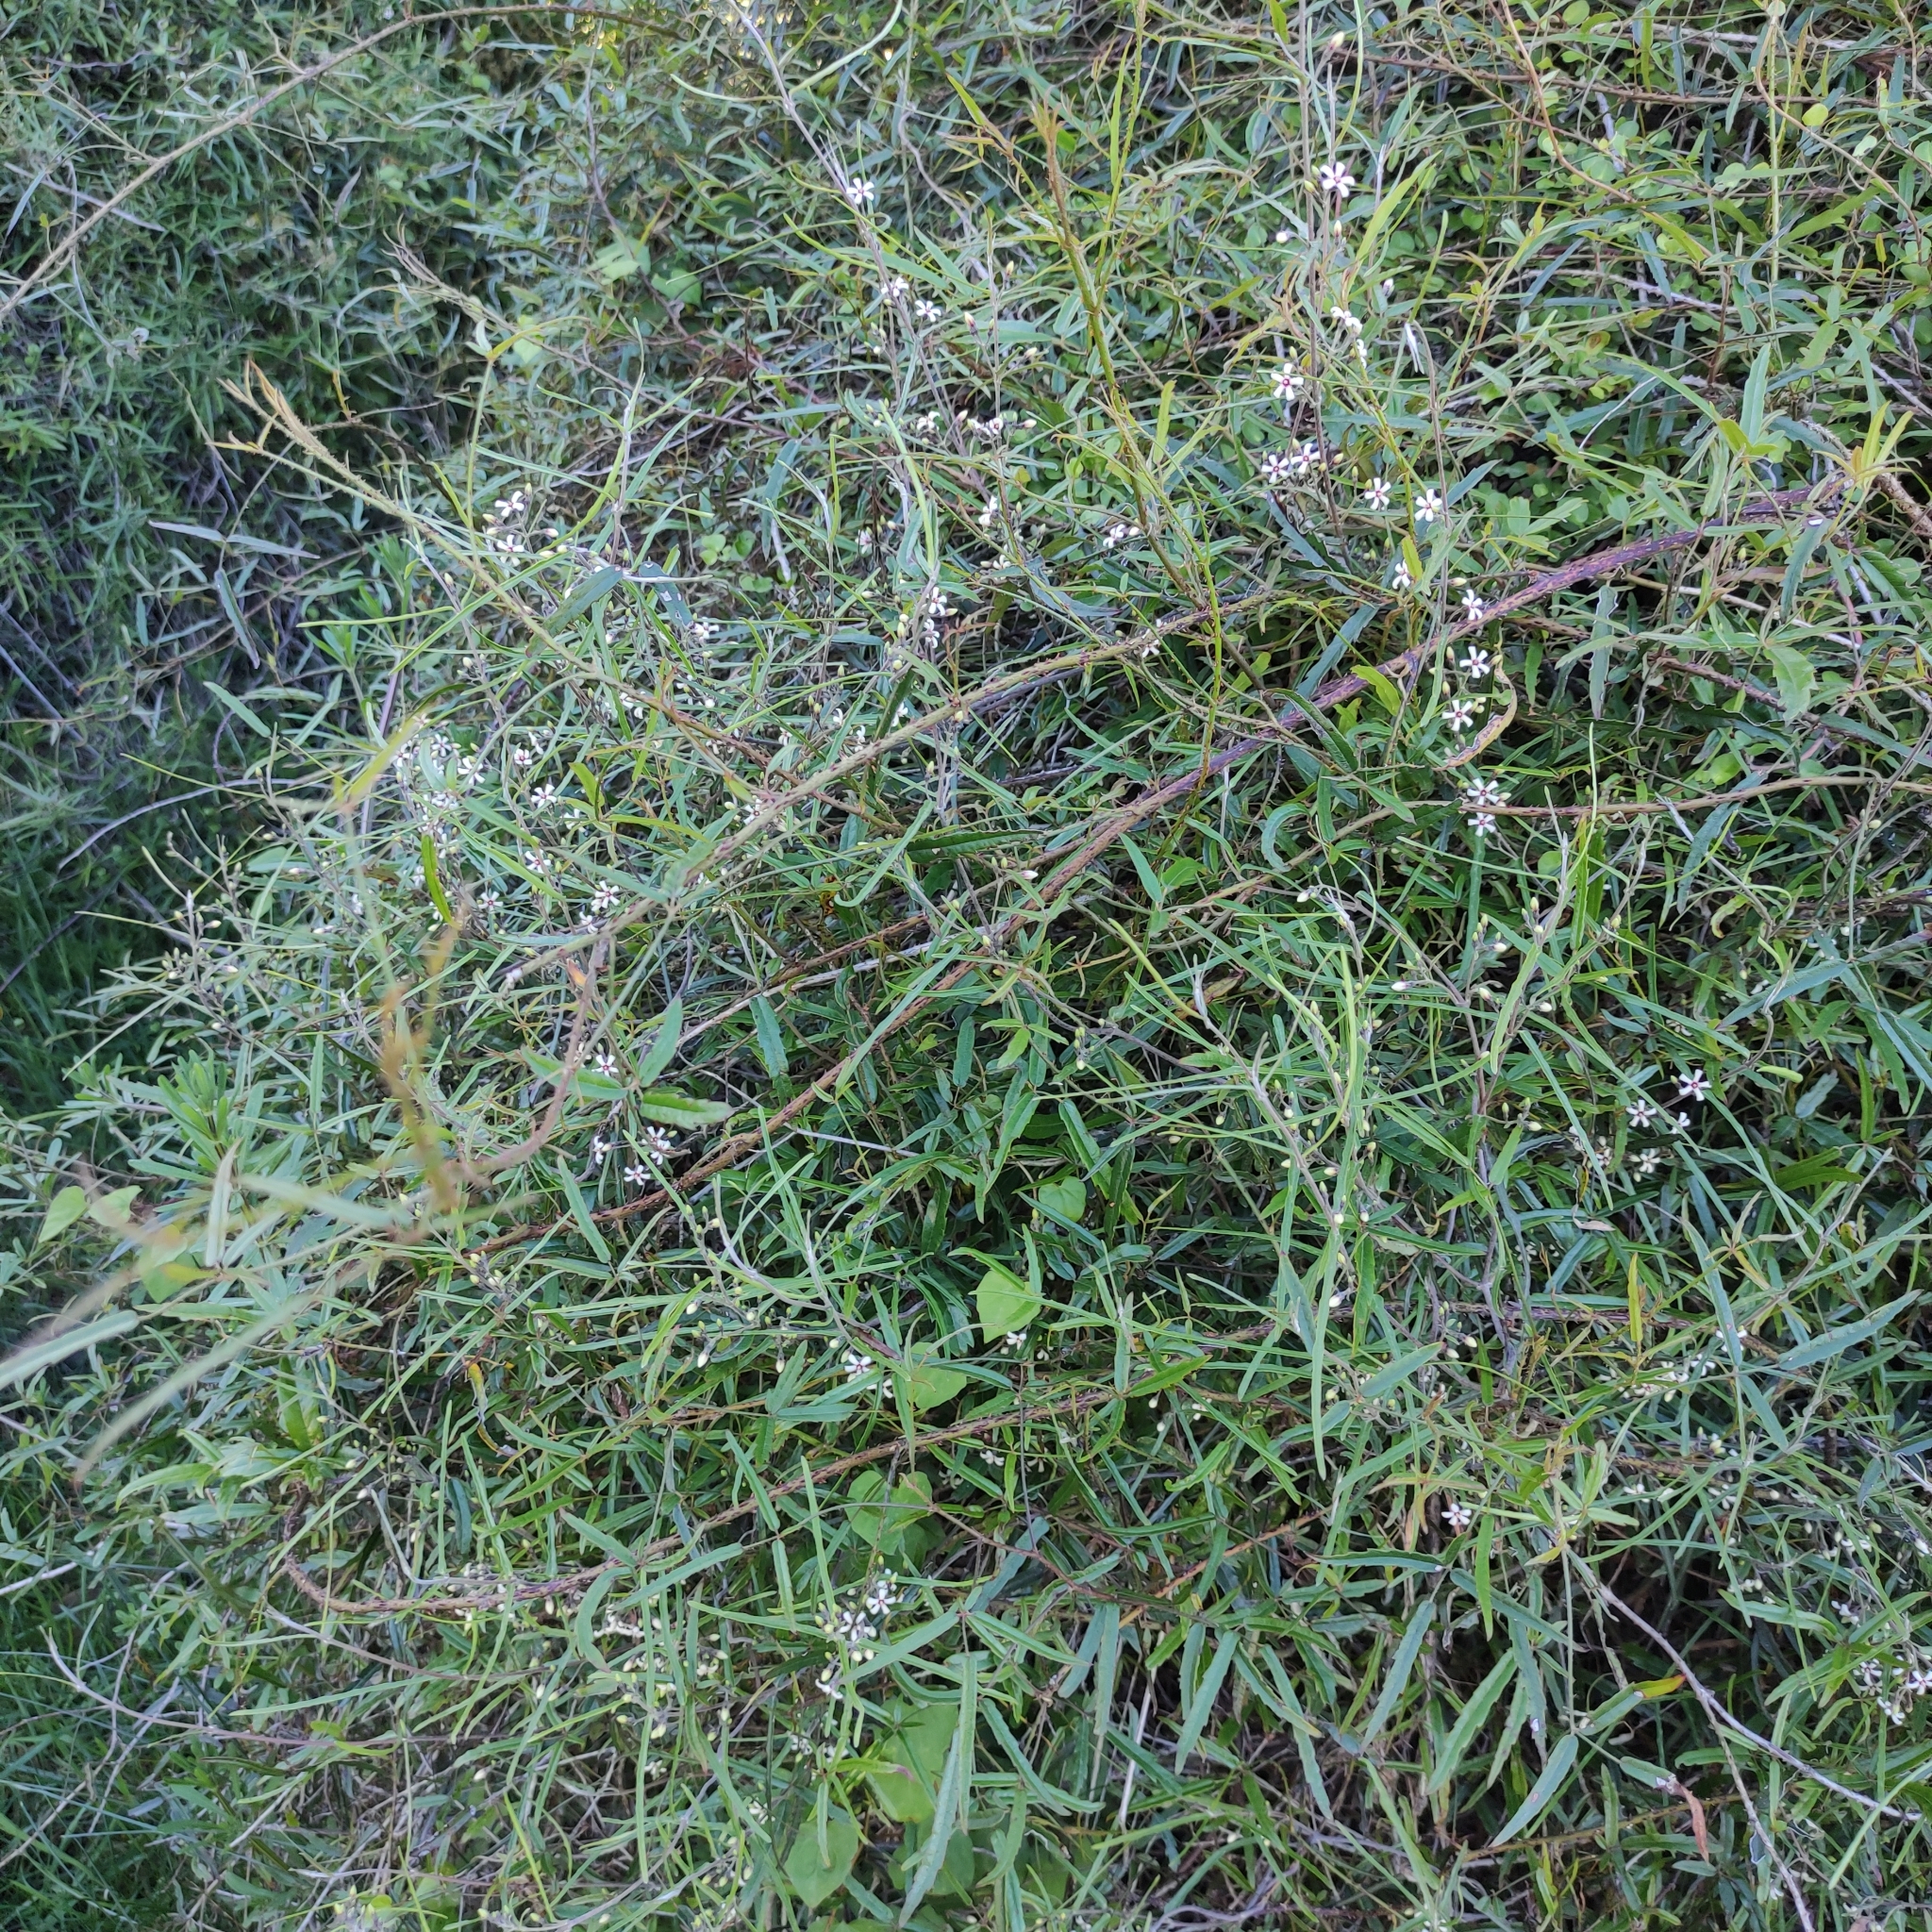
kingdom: Plantae
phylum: Tracheophyta
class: Magnoliopsida
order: Gentianales
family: Apocynaceae
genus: Parsonsia
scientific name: Parsonsia capsularis
